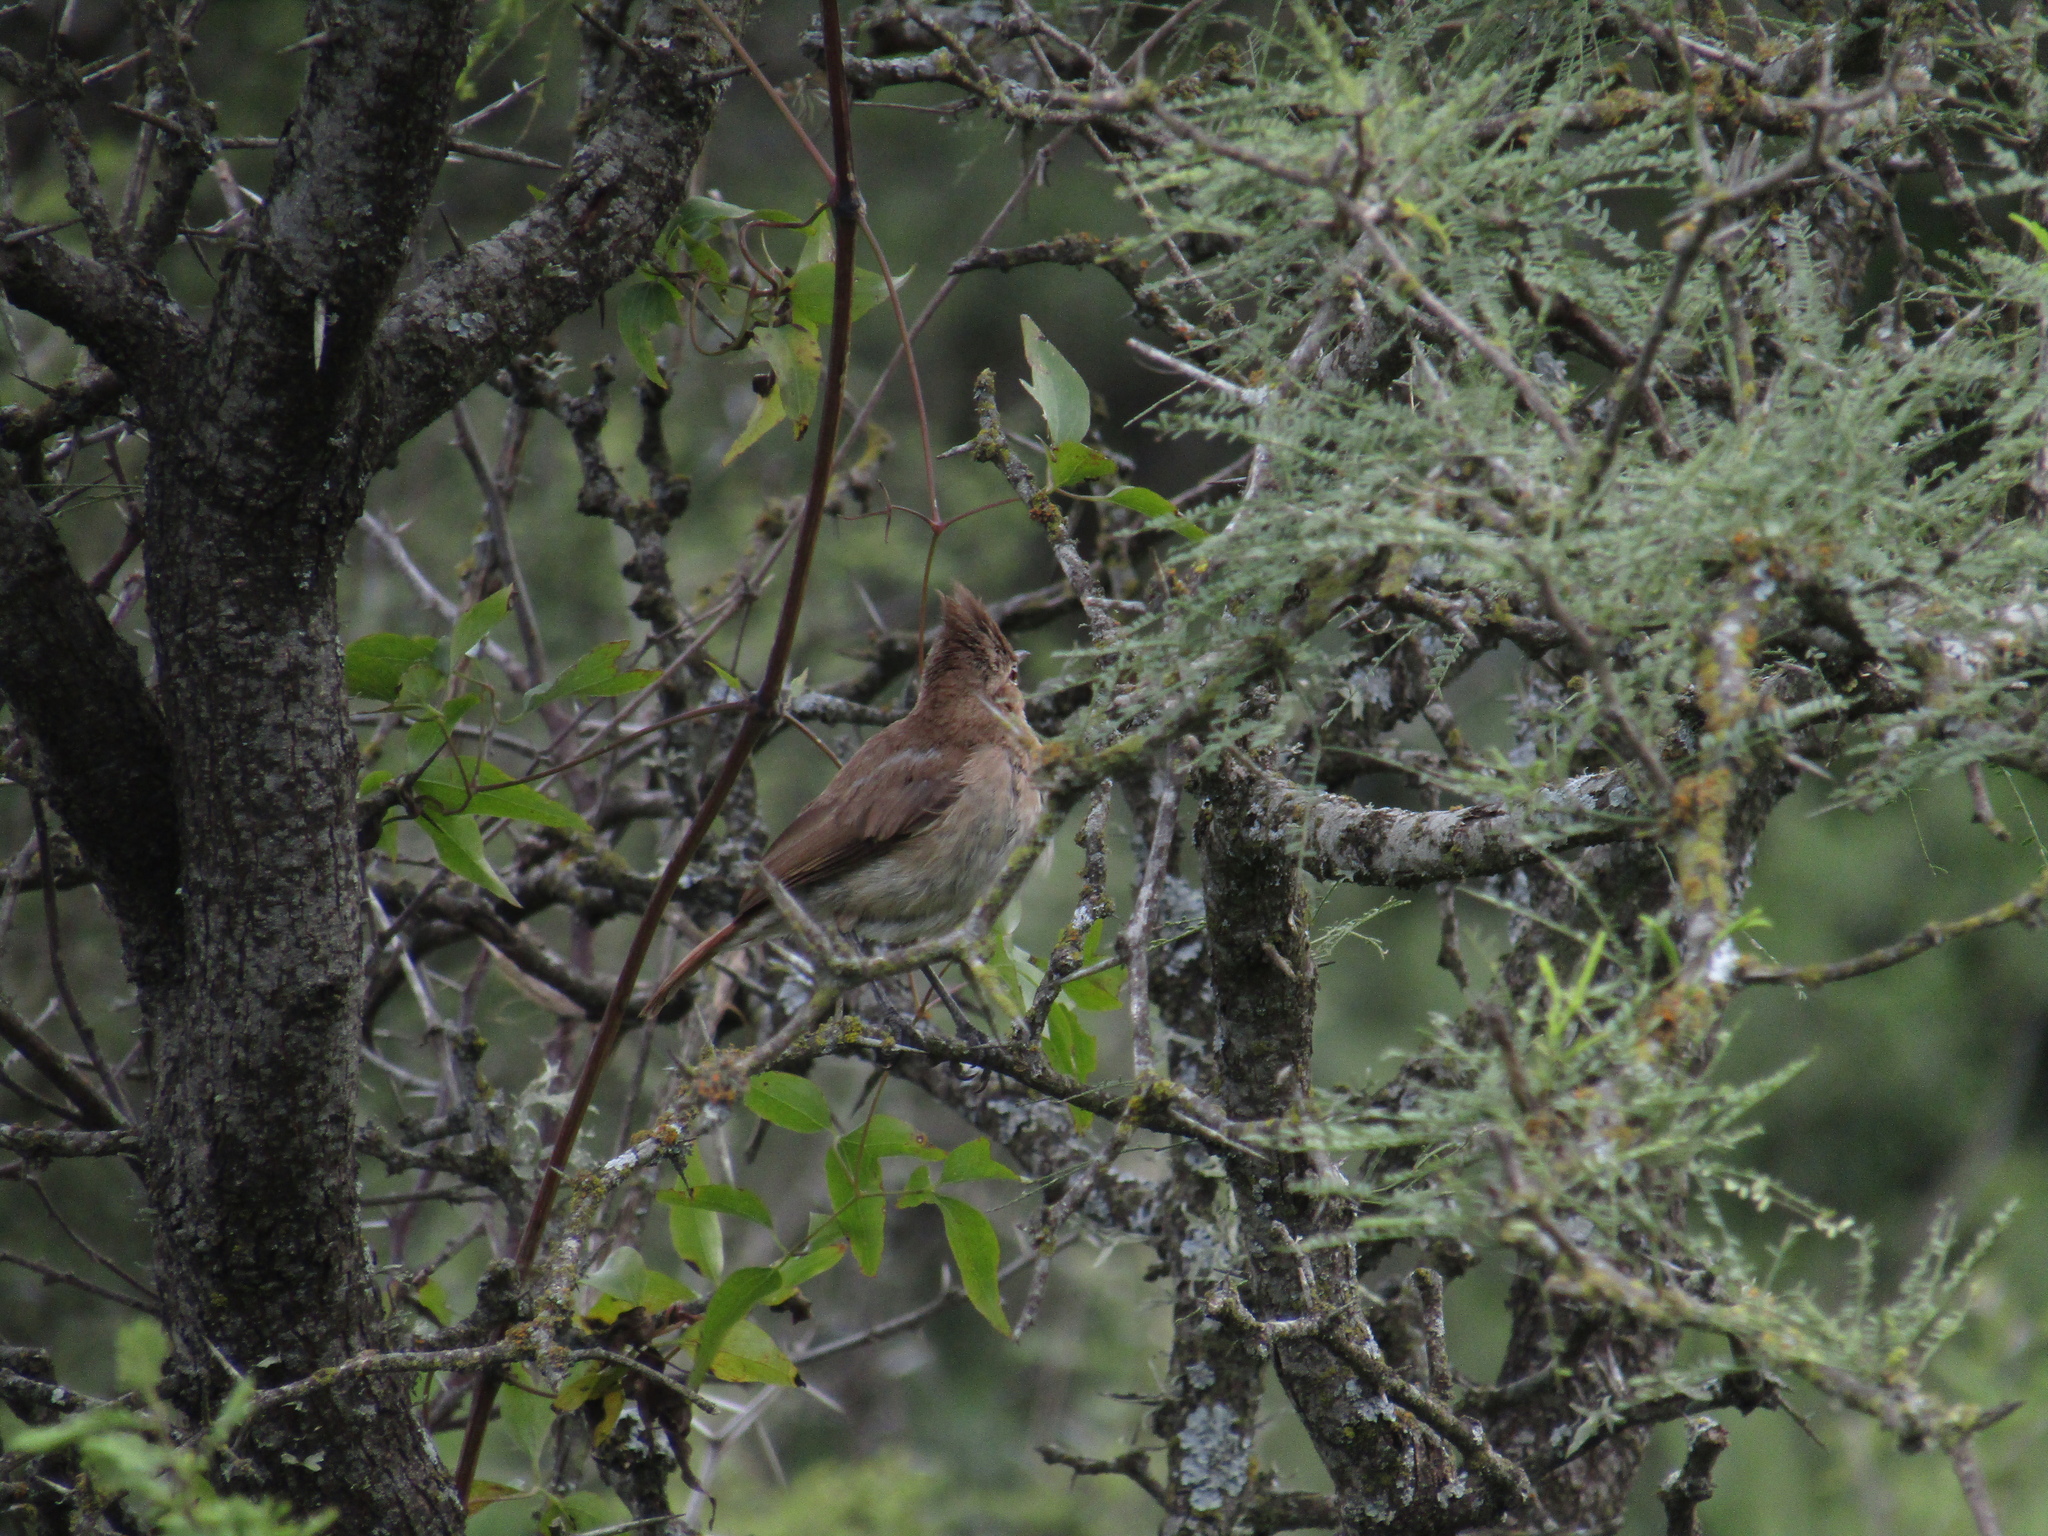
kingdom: Animalia
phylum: Chordata
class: Aves
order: Passeriformes
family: Furnariidae
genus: Furnarius
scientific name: Furnarius cristatus
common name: Crested hornero
